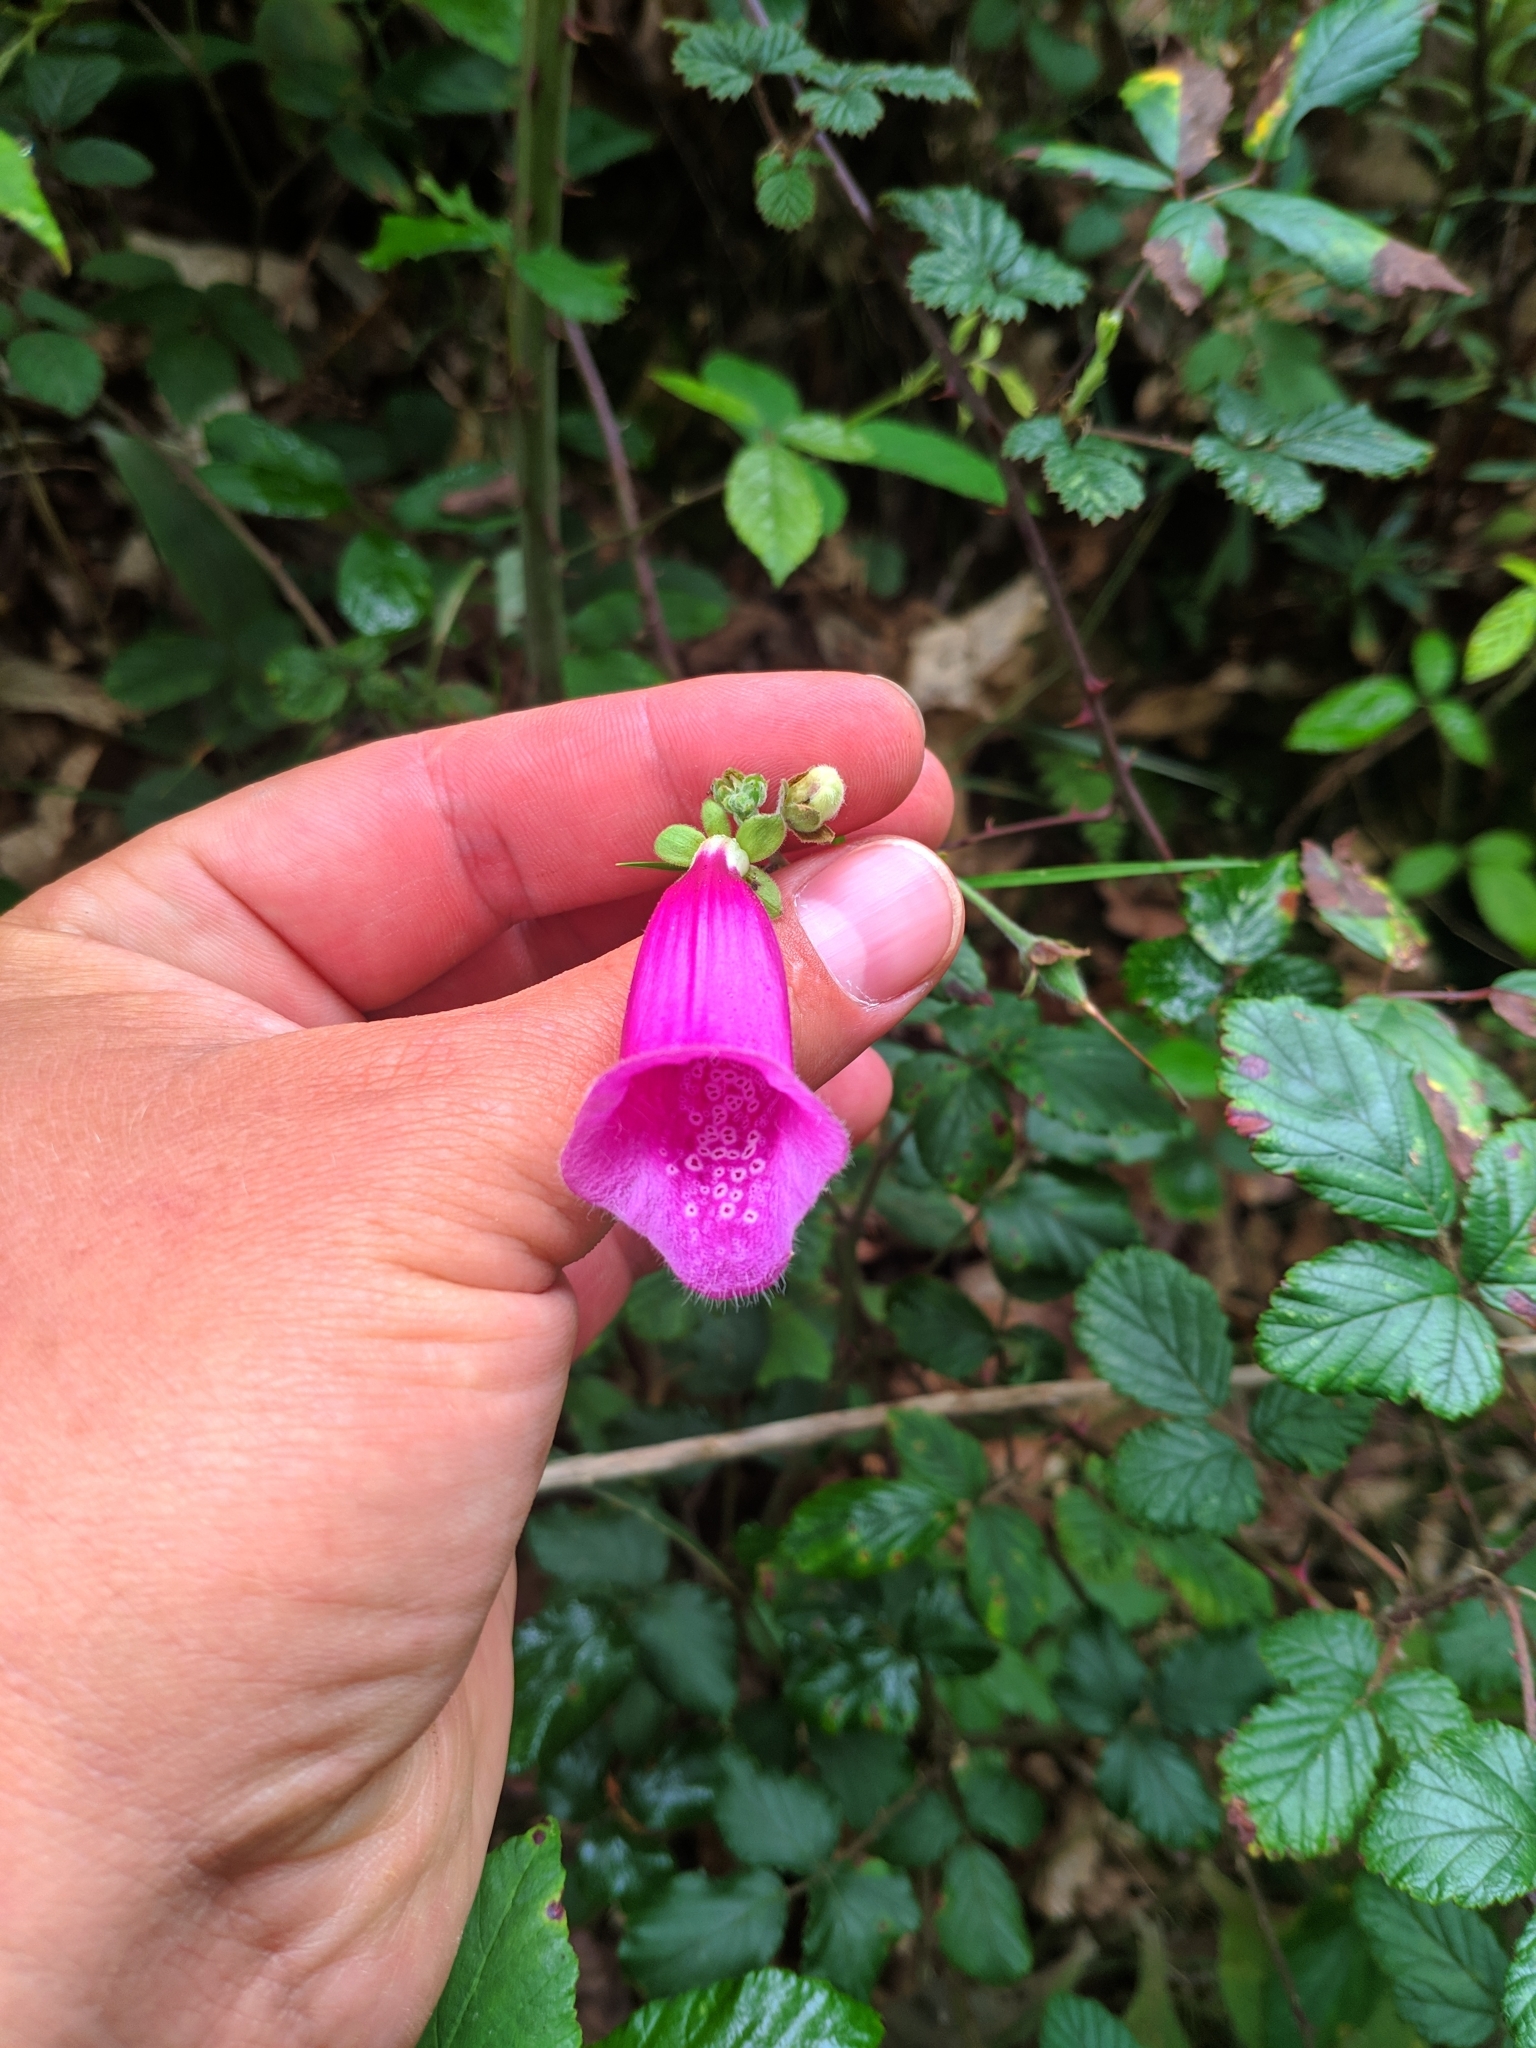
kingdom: Plantae
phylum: Tracheophyta
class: Magnoliopsida
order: Lamiales
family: Plantaginaceae
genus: Digitalis
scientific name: Digitalis purpurea
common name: Foxglove
